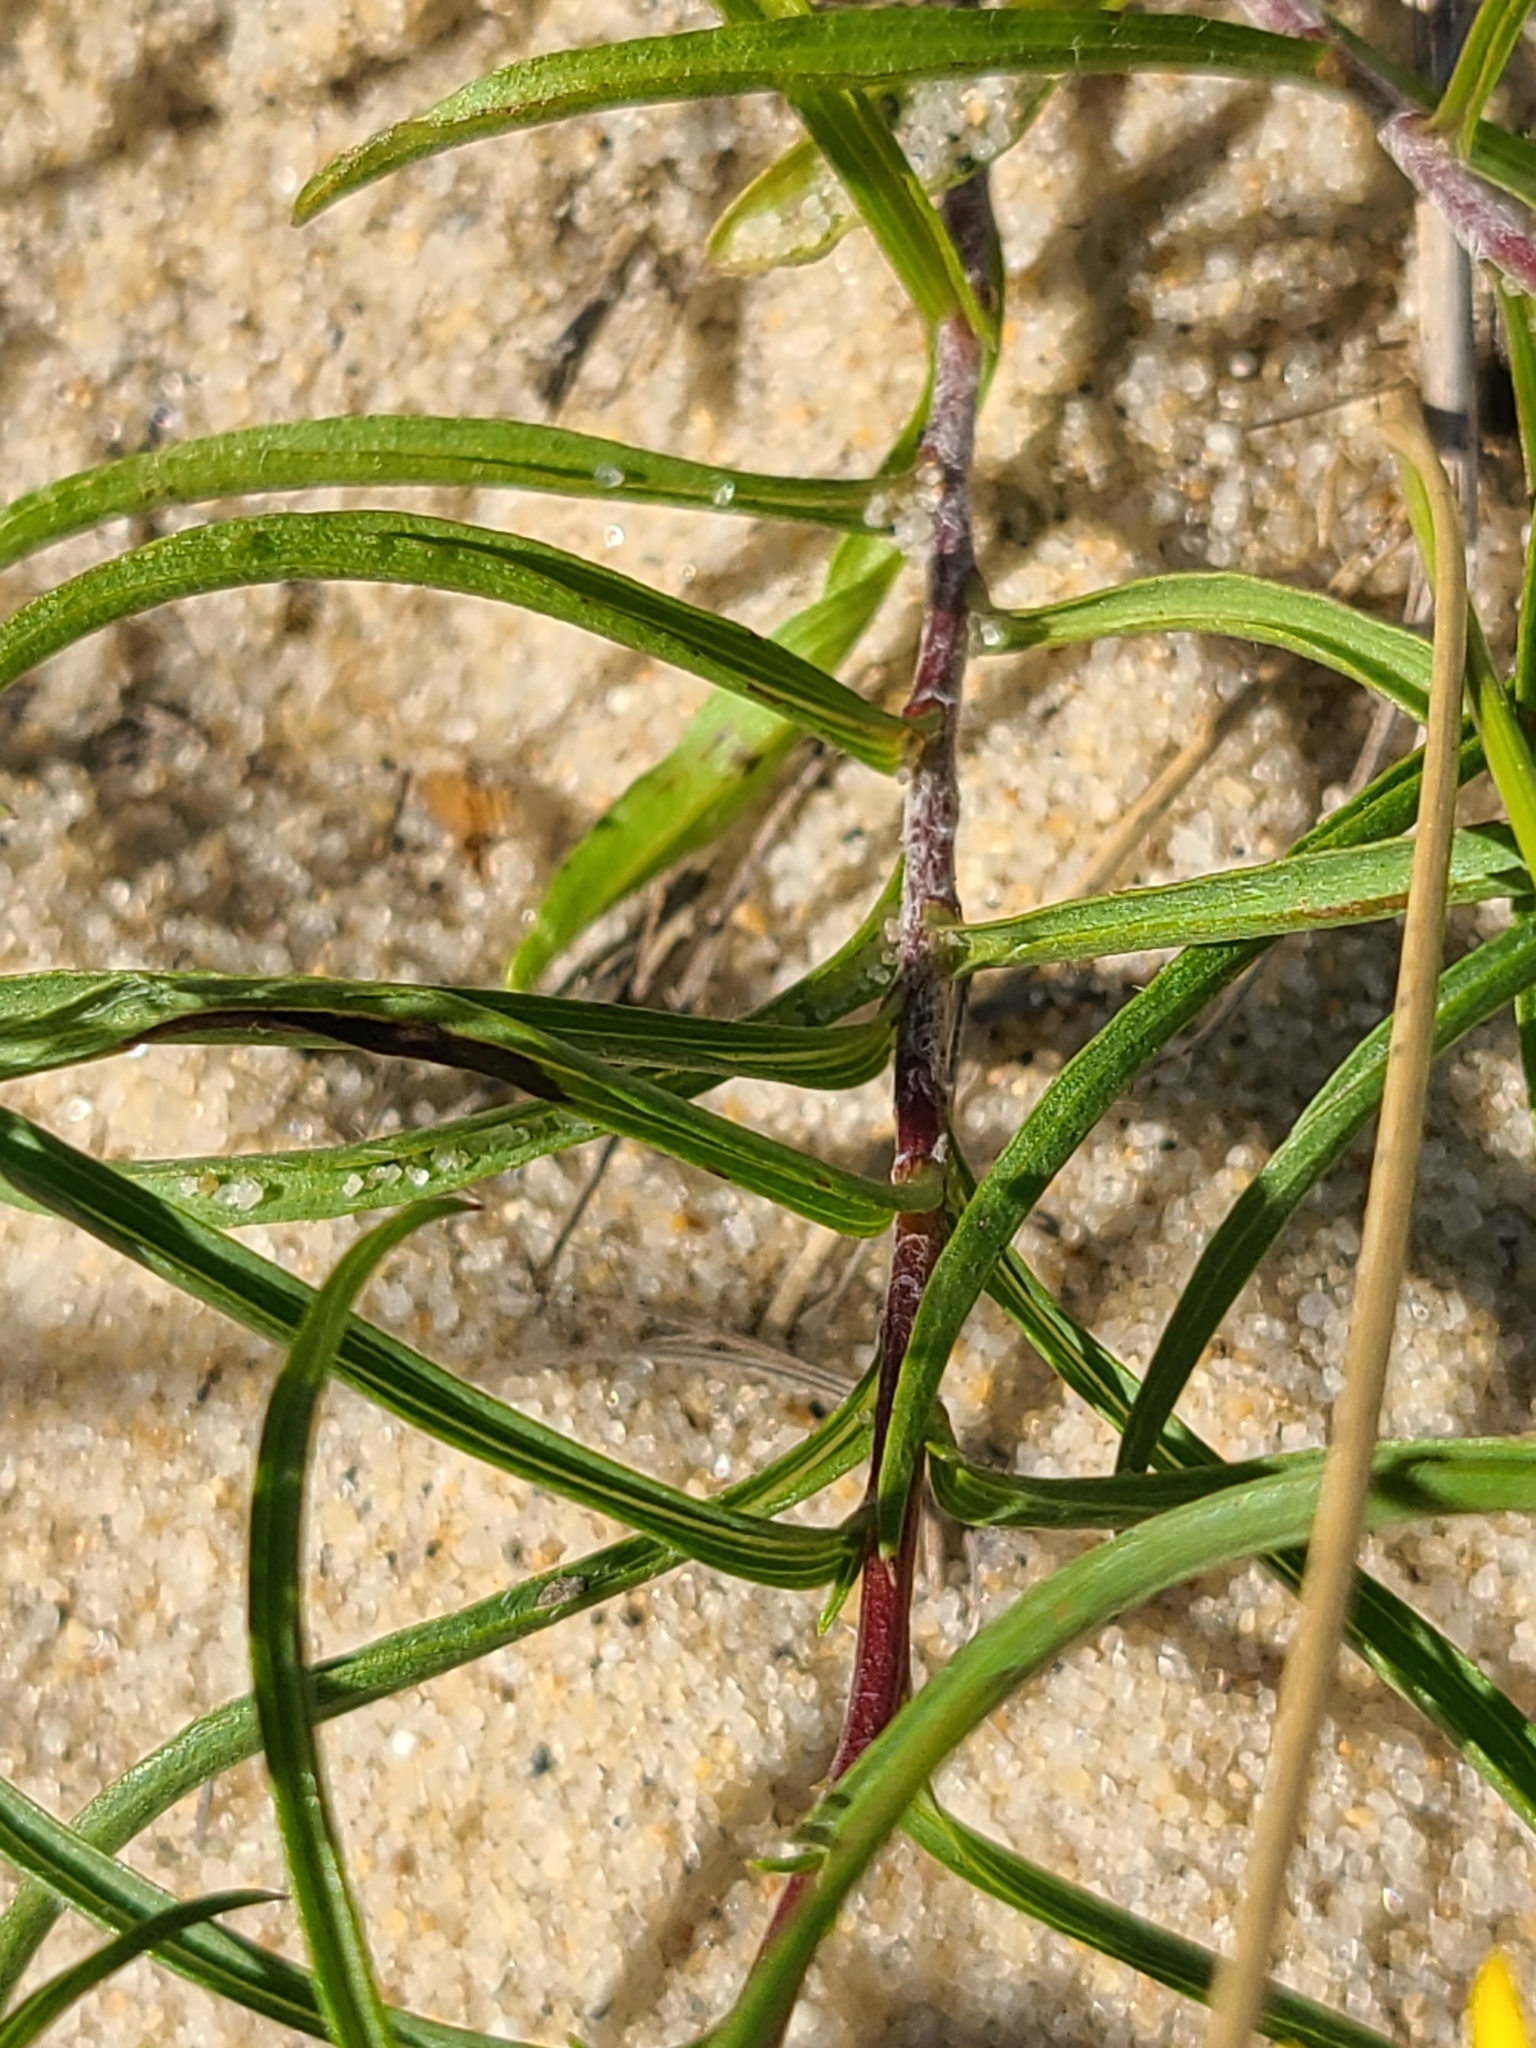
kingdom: Plantae
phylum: Tracheophyta
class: Magnoliopsida
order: Asterales
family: Asteraceae
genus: Pityopsis
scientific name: Pityopsis falcata
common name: Sickle-leaved goldenaster
